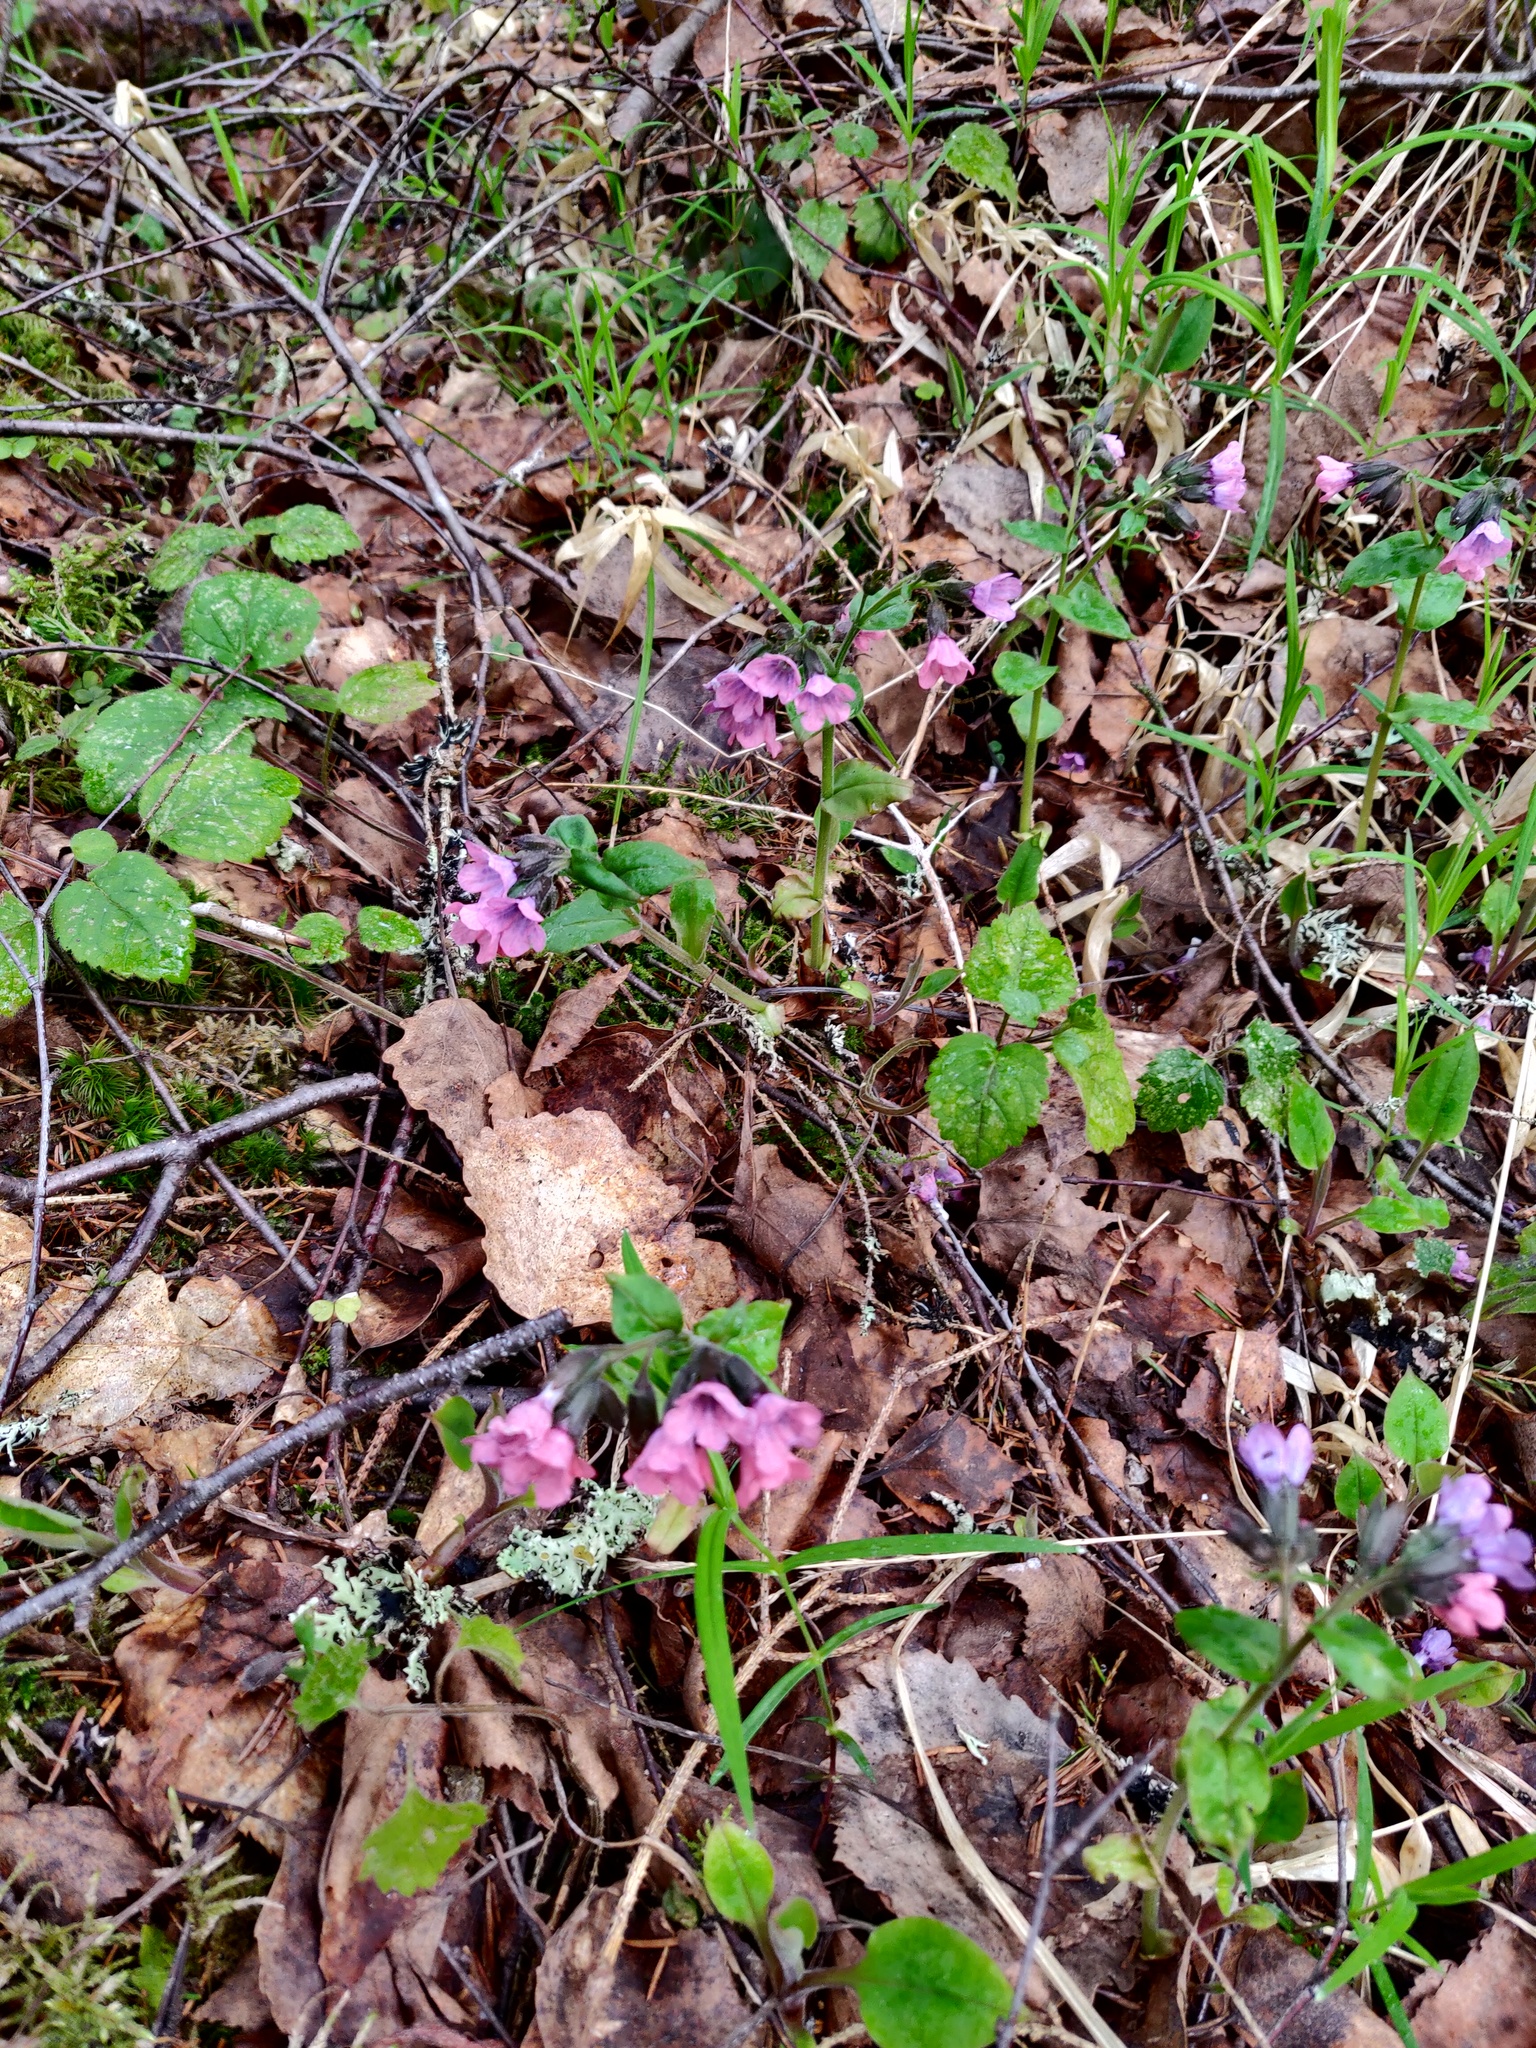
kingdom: Plantae
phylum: Tracheophyta
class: Magnoliopsida
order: Boraginales
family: Boraginaceae
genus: Pulmonaria
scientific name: Pulmonaria obscura
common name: Suffolk lungwort
